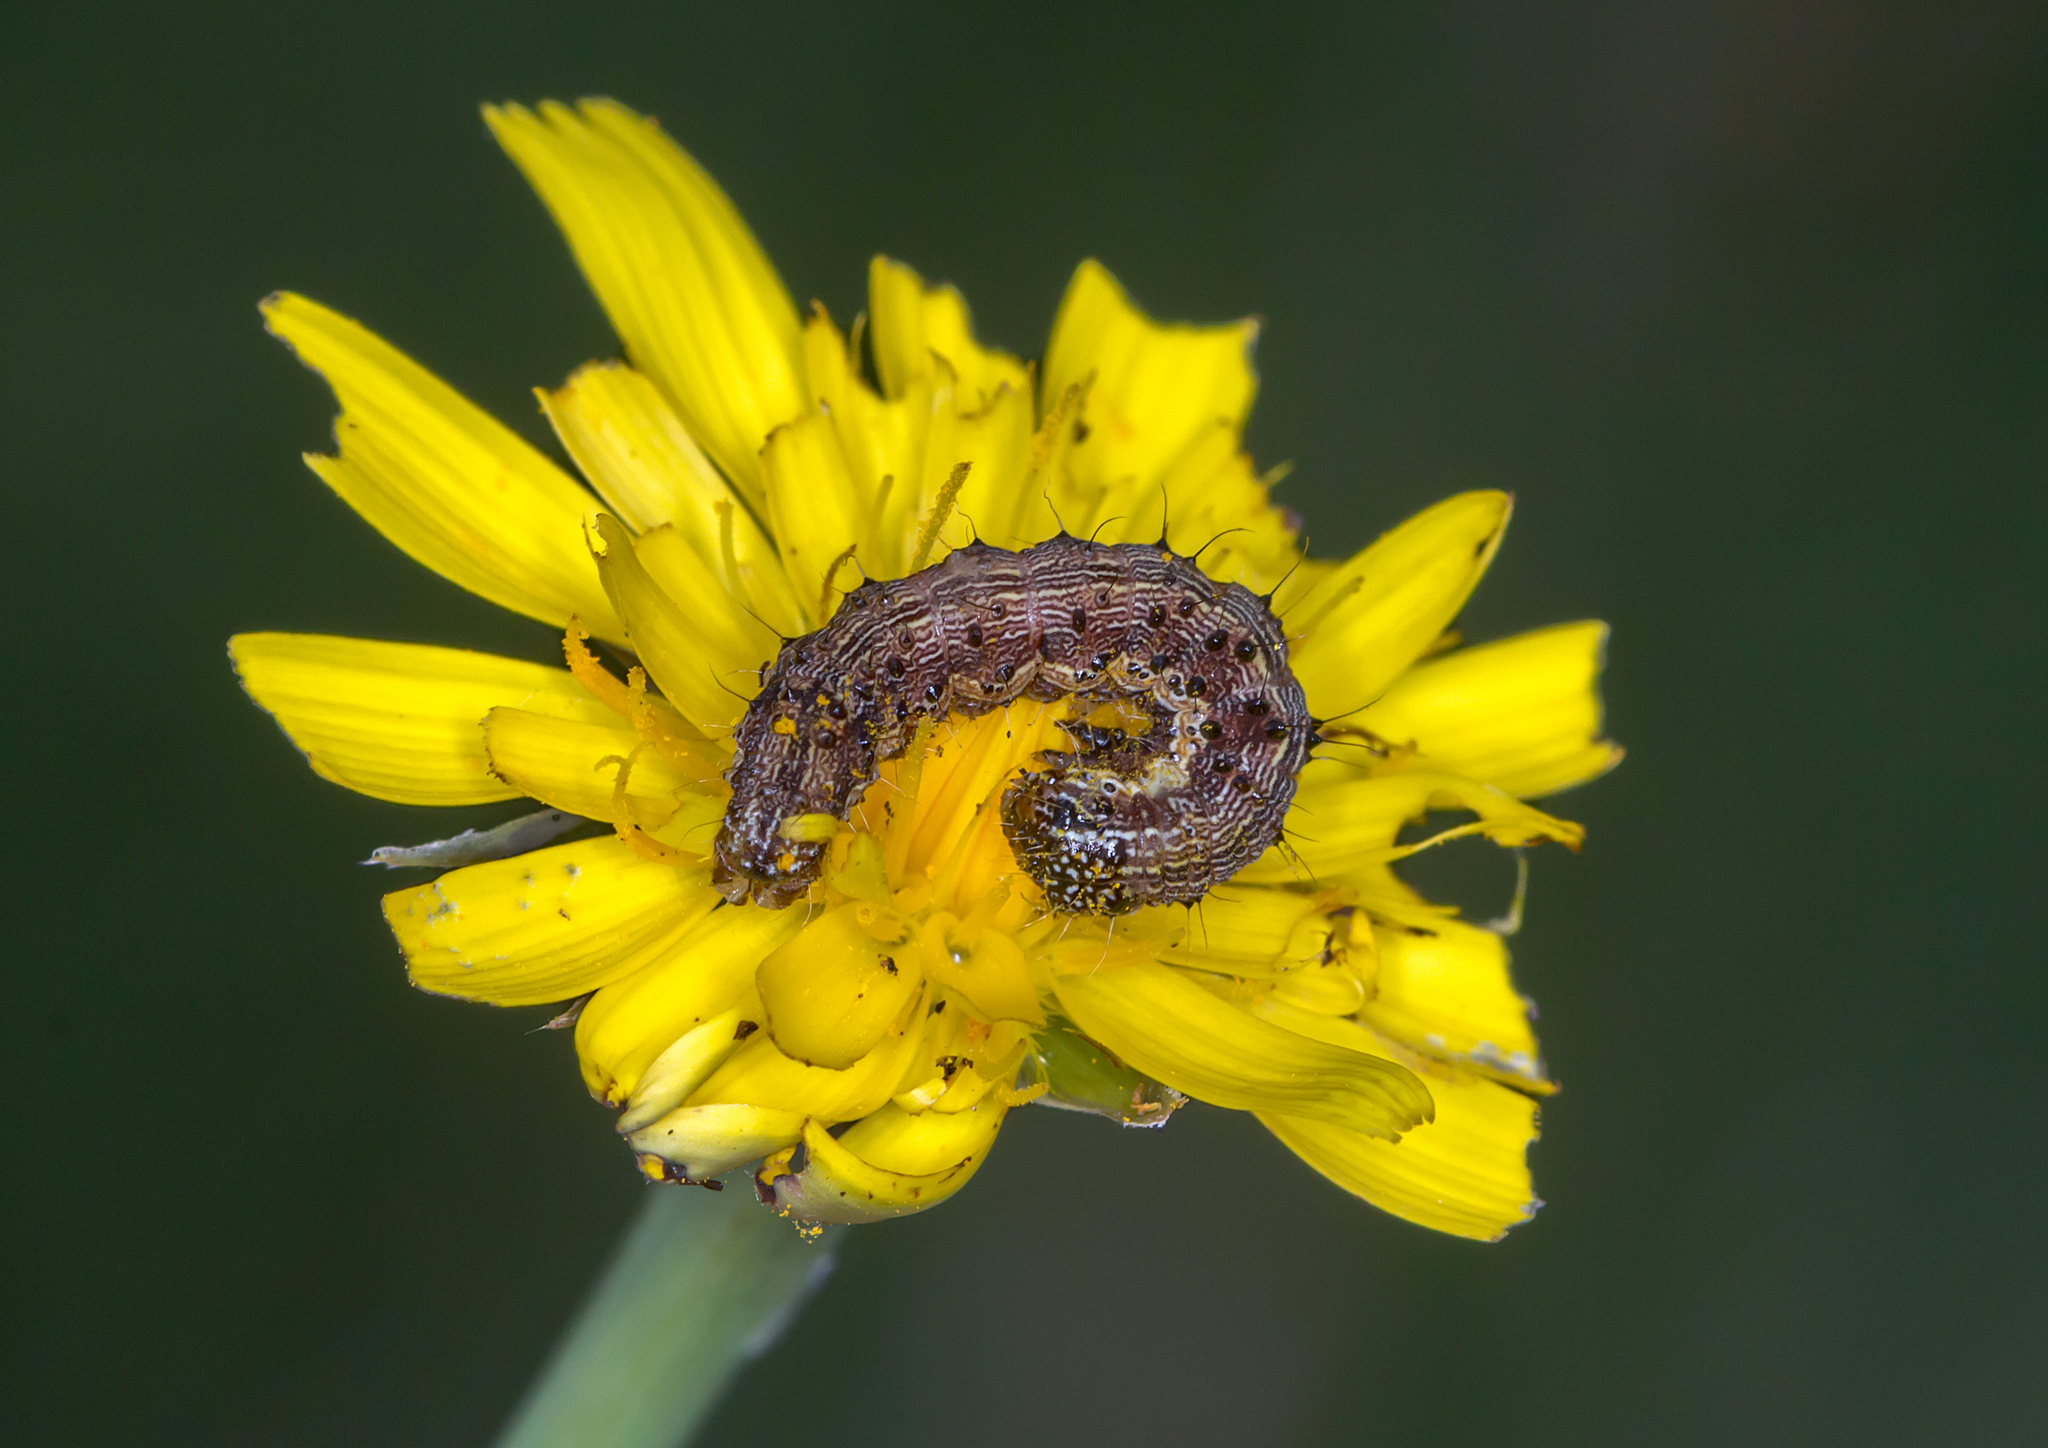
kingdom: Animalia
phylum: Arthropoda
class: Insecta
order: Lepidoptera
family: Noctuidae
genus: Helicoverpa
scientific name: Helicoverpa armigera
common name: Cotton bollworm
